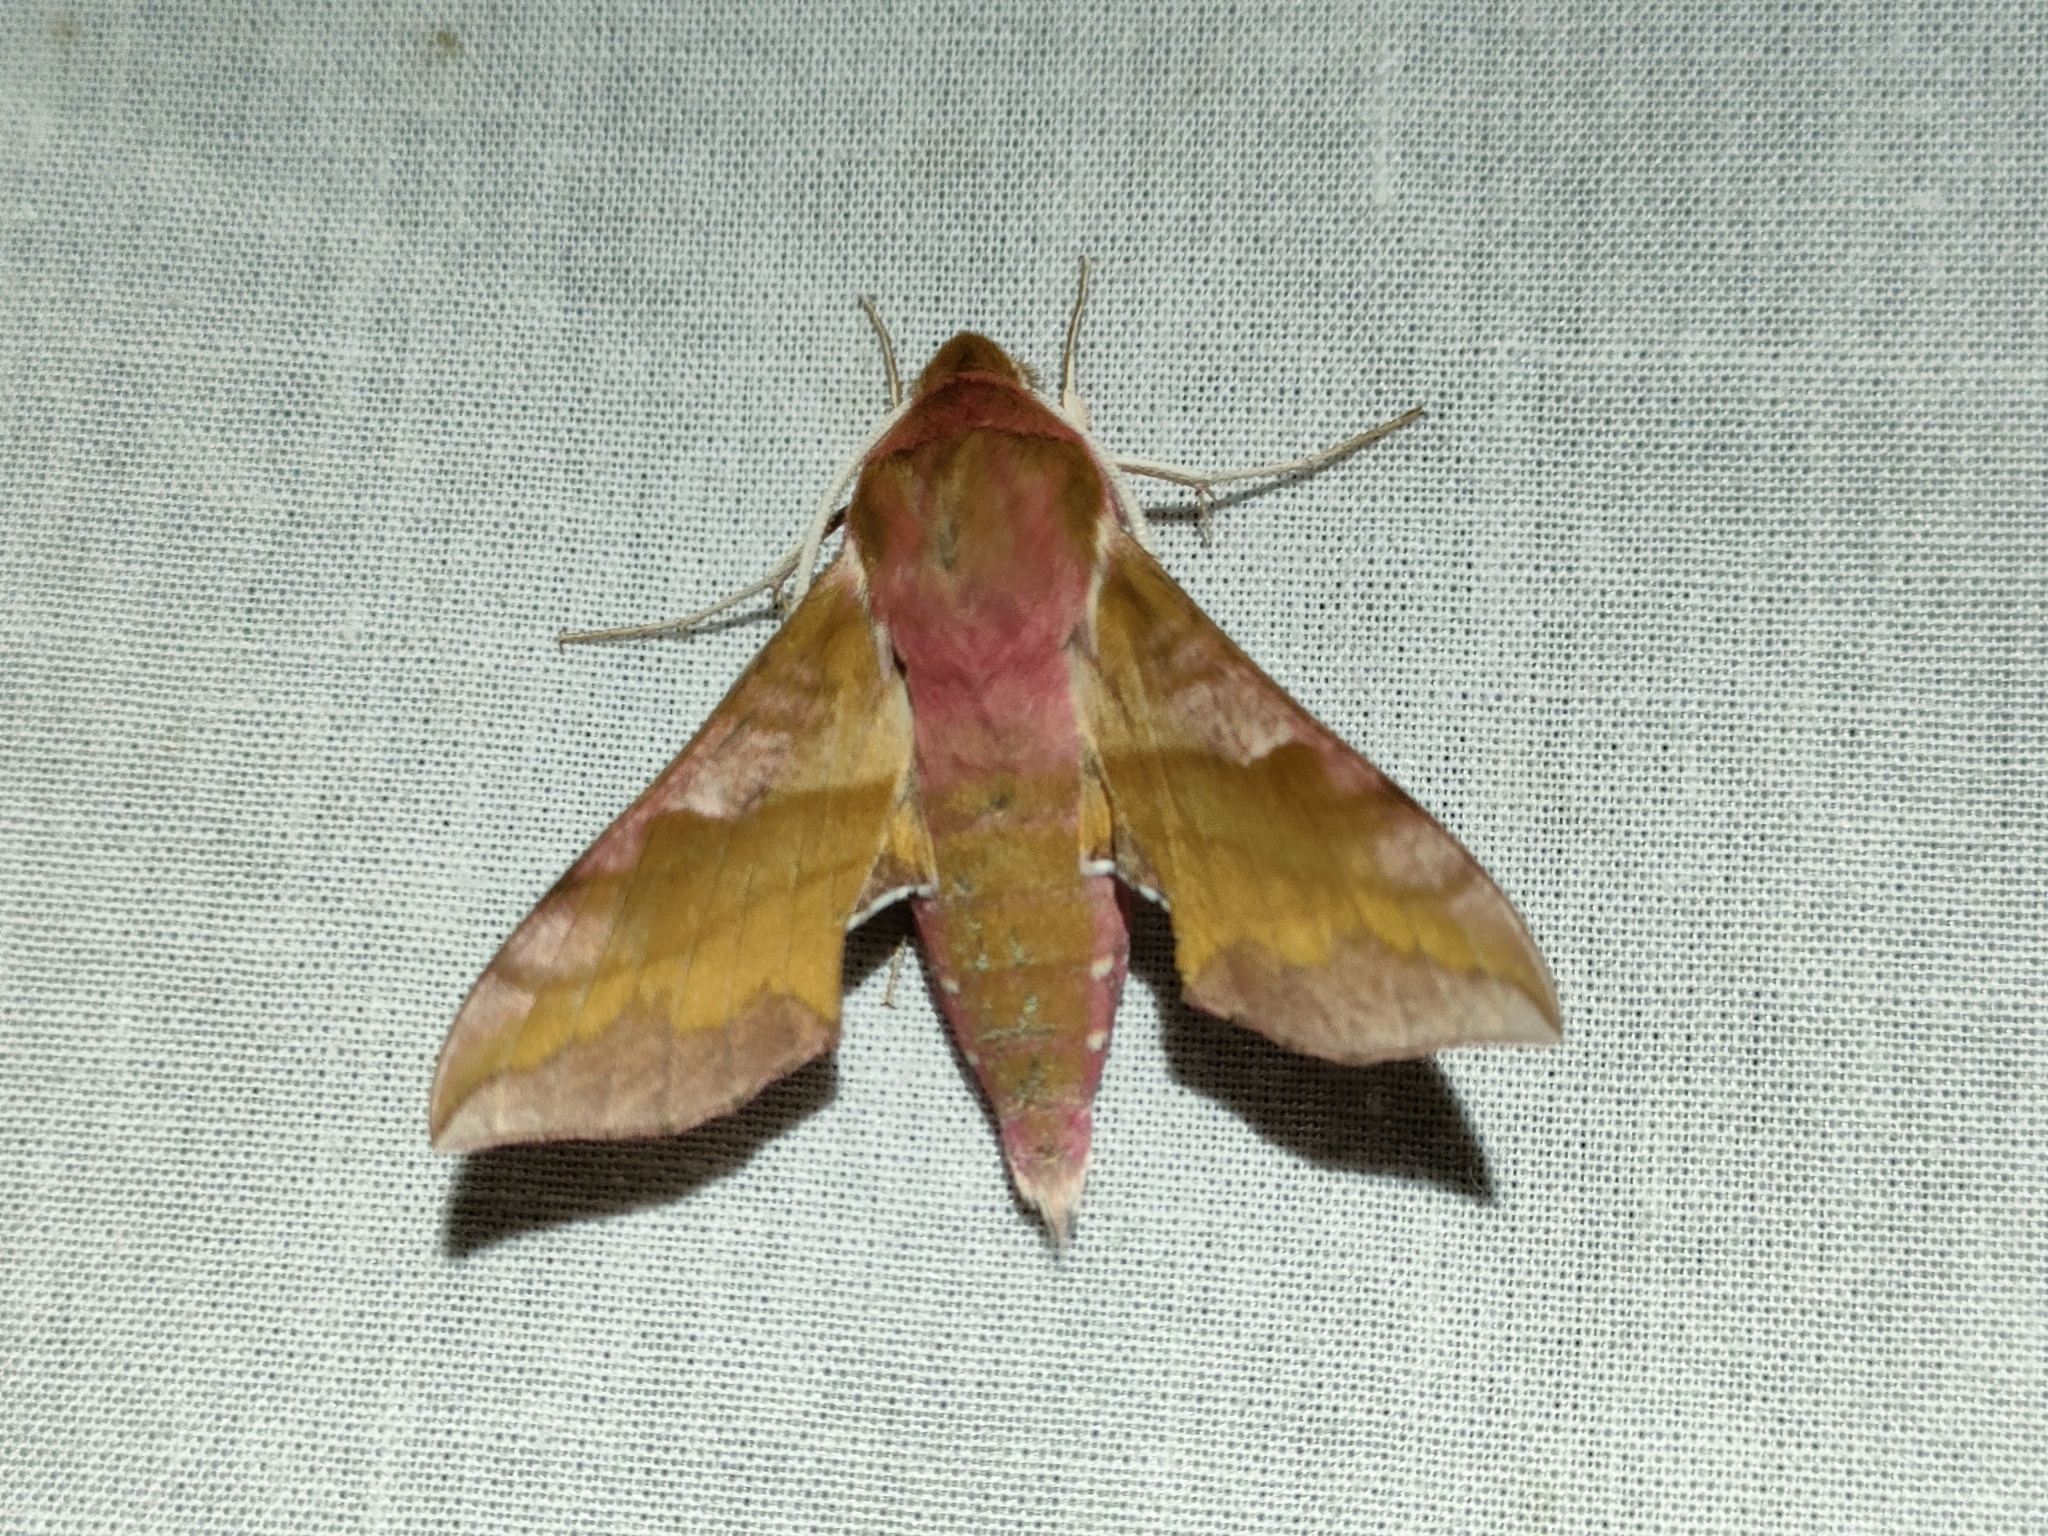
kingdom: Animalia
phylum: Arthropoda
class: Insecta
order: Lepidoptera
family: Sphingidae
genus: Deilephila
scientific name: Deilephila porcellus
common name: Small elephant hawk-moth
